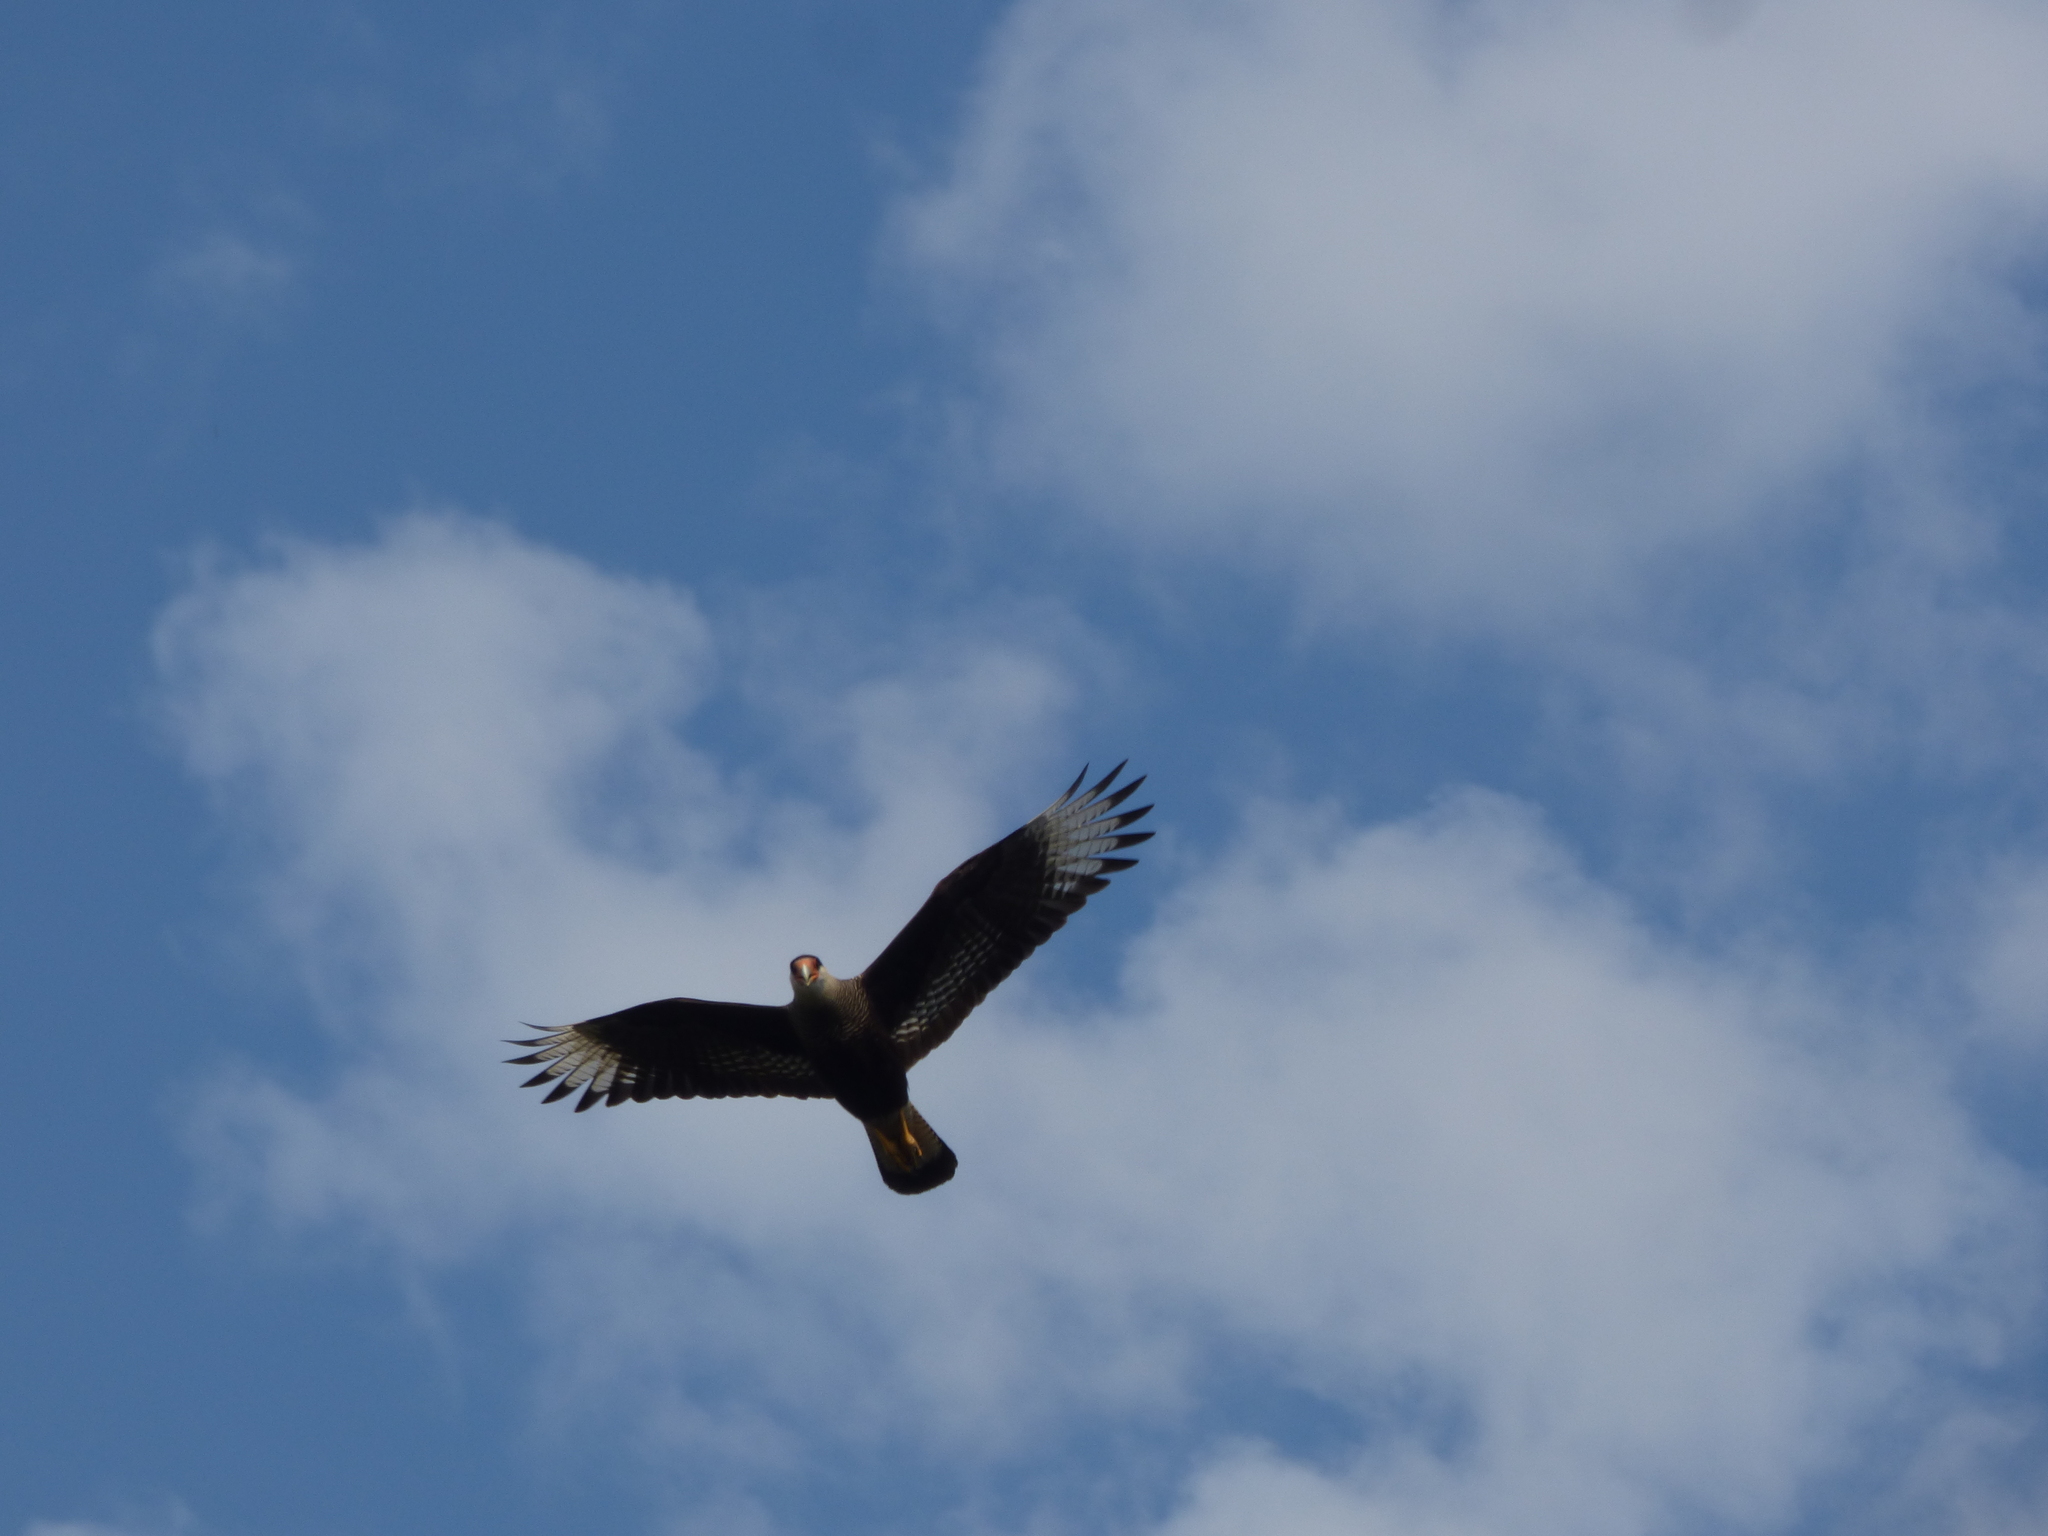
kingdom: Animalia
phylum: Chordata
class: Aves
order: Falconiformes
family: Falconidae
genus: Caracara
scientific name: Caracara plancus
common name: Southern caracara
